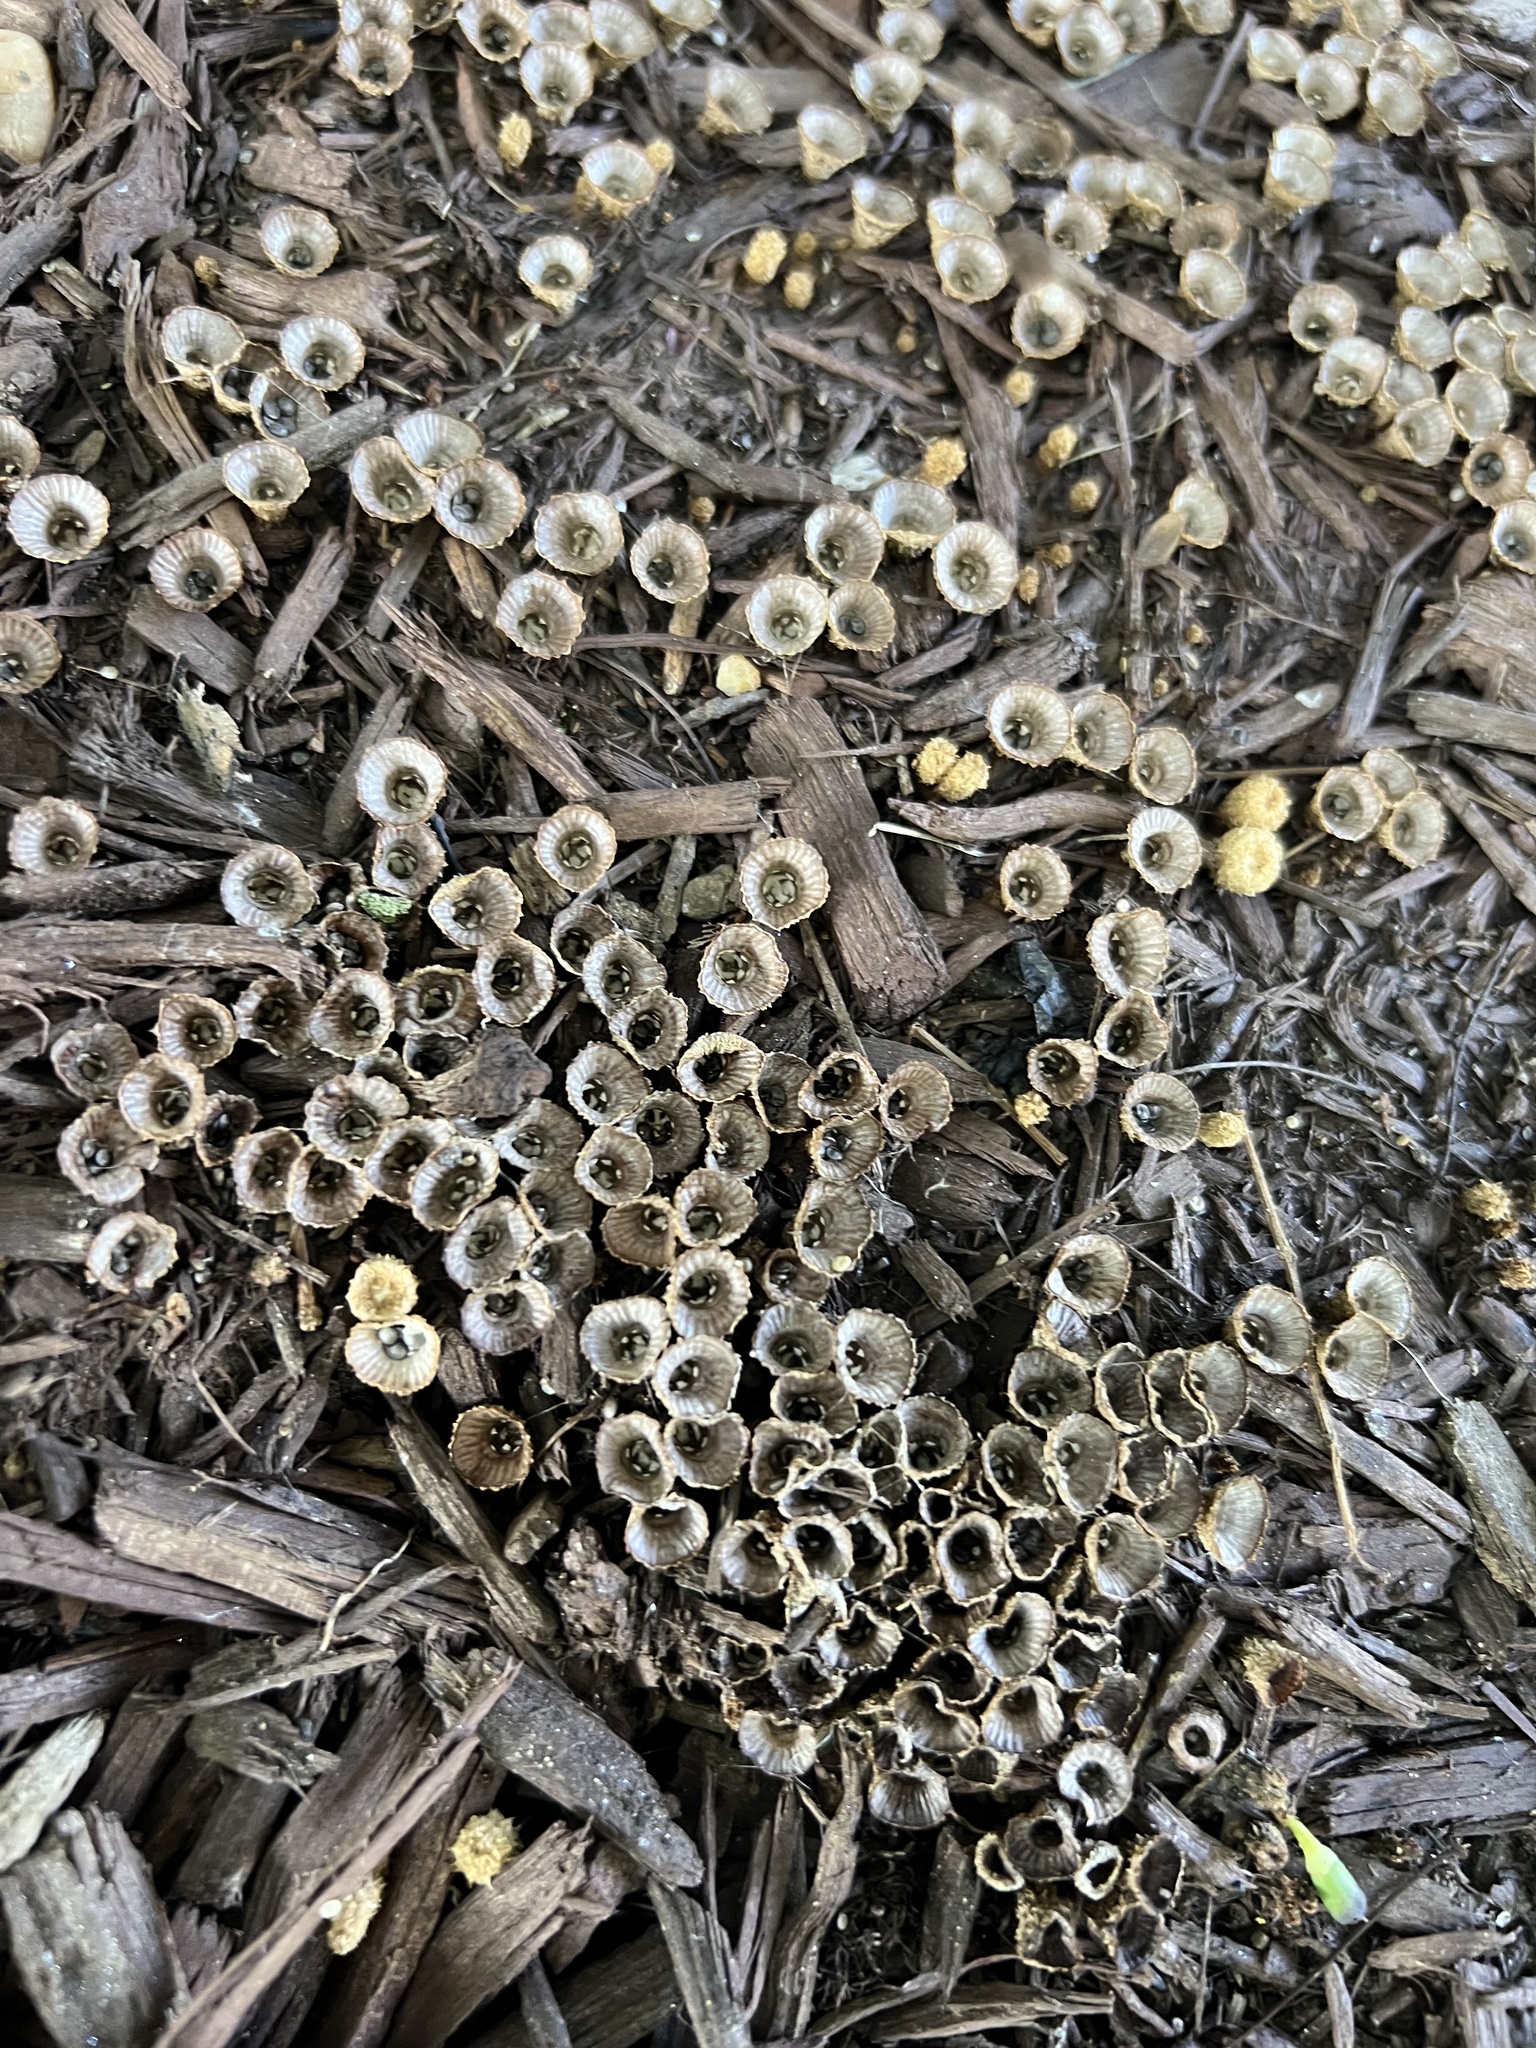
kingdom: Fungi
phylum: Basidiomycota
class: Agaricomycetes
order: Agaricales
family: Agaricaceae
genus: Cyathus
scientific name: Cyathus striatus
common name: Fluted bird's nest
